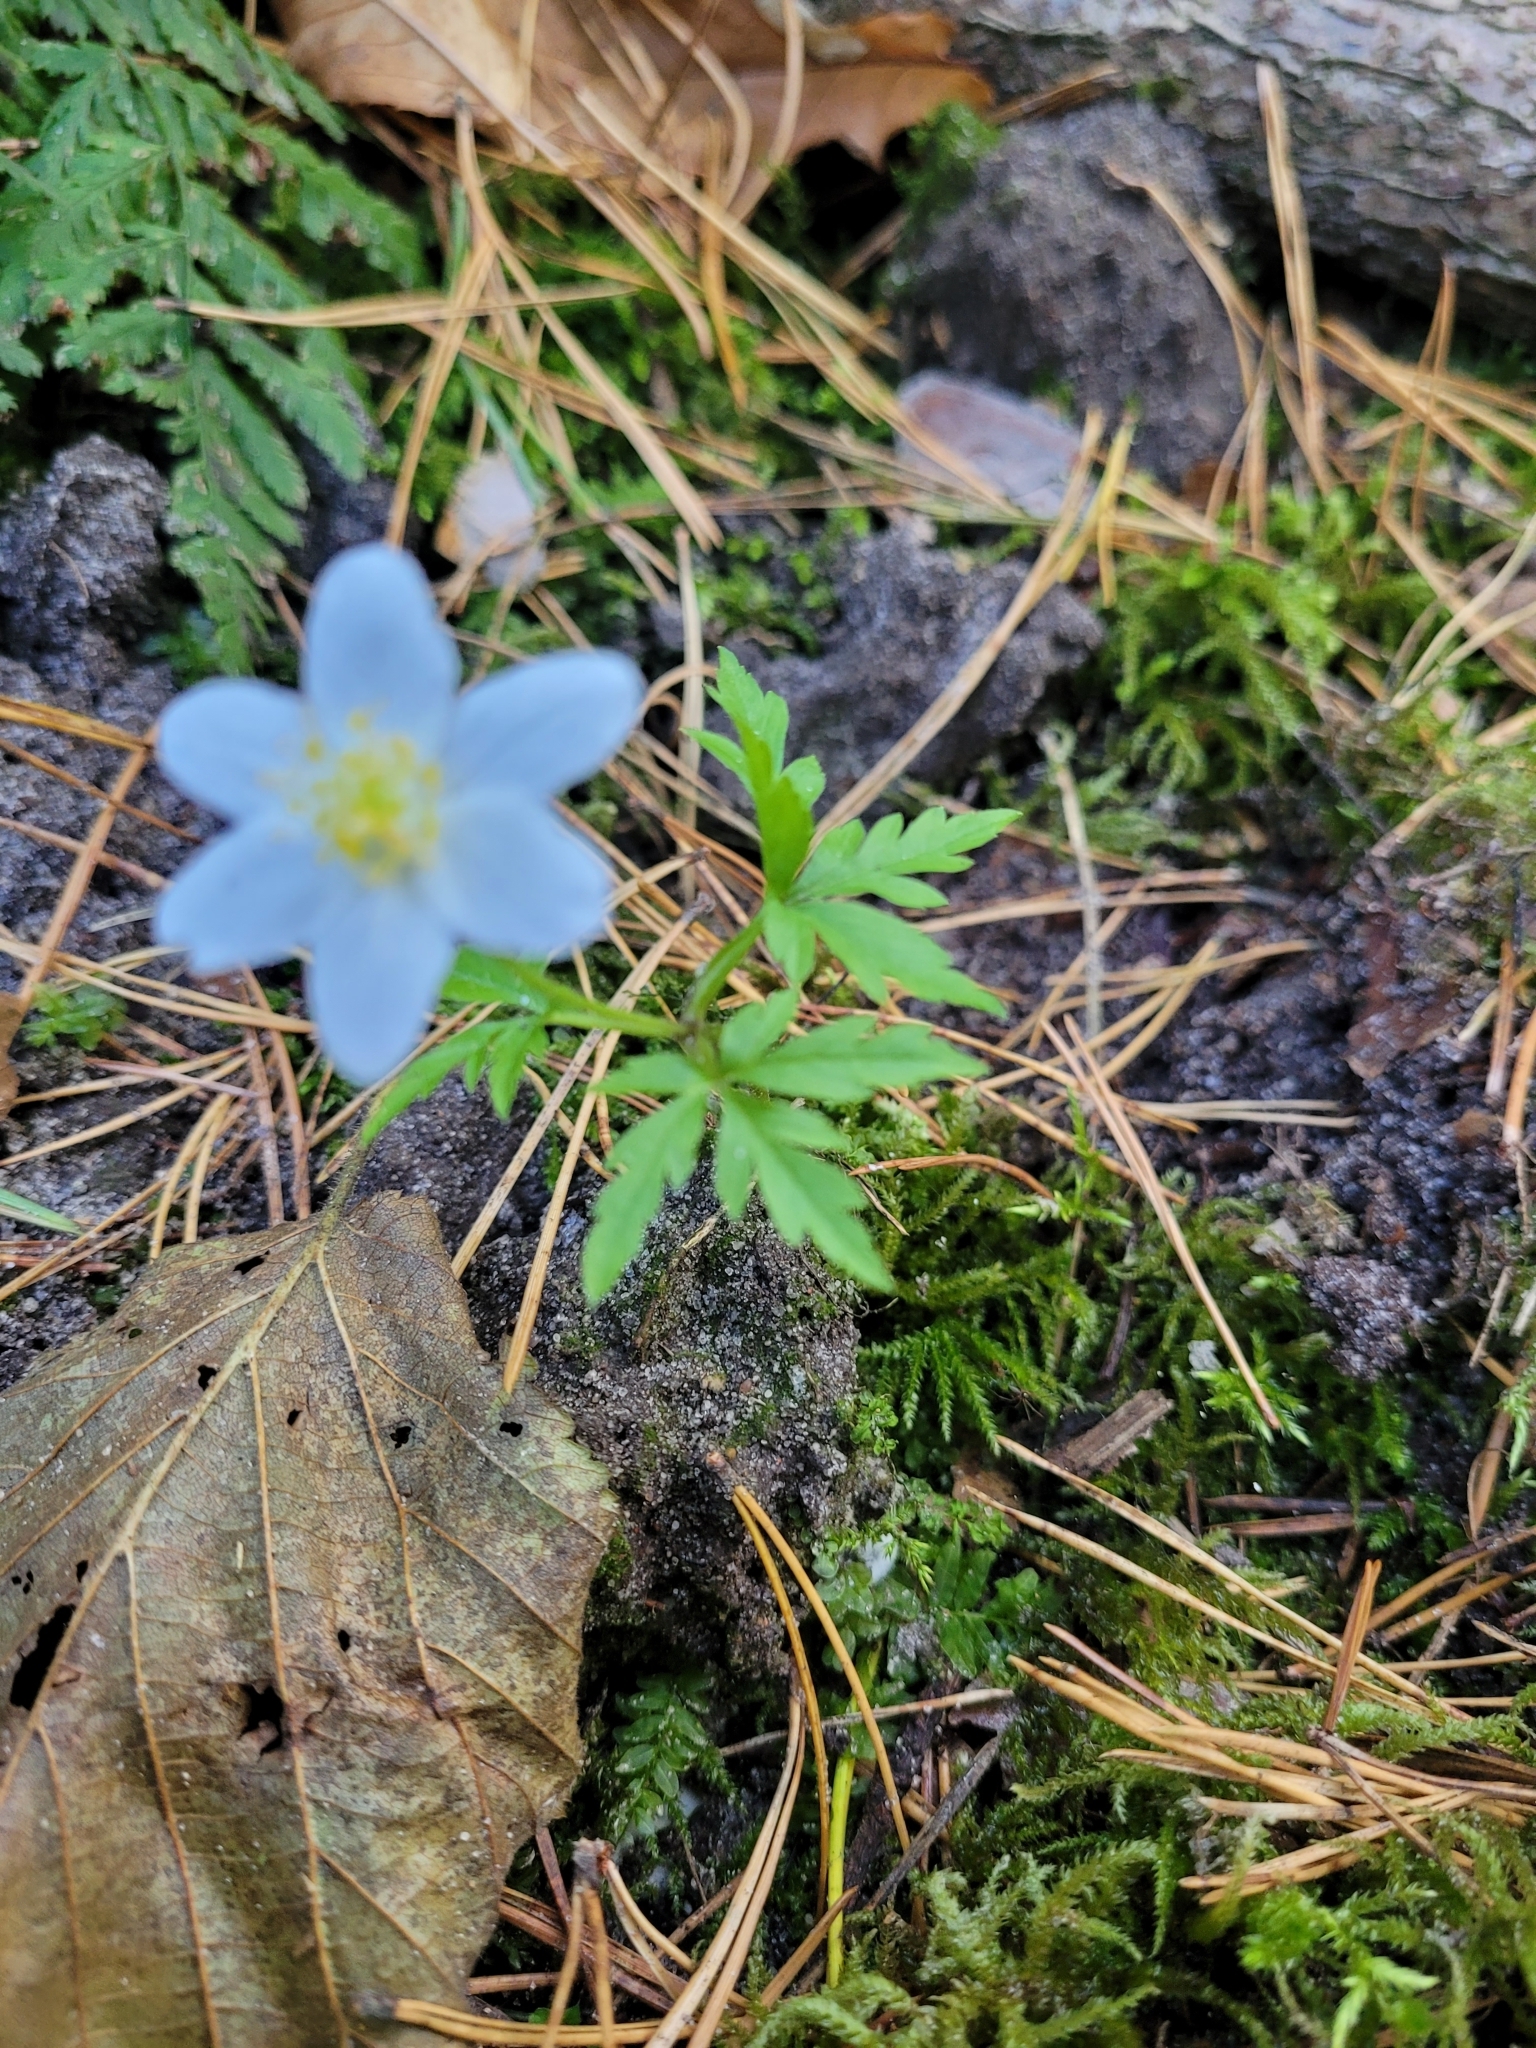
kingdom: Plantae
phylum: Tracheophyta
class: Magnoliopsida
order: Ranunculales
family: Ranunculaceae
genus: Anemone
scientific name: Anemone nemorosa
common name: Wood anemone
